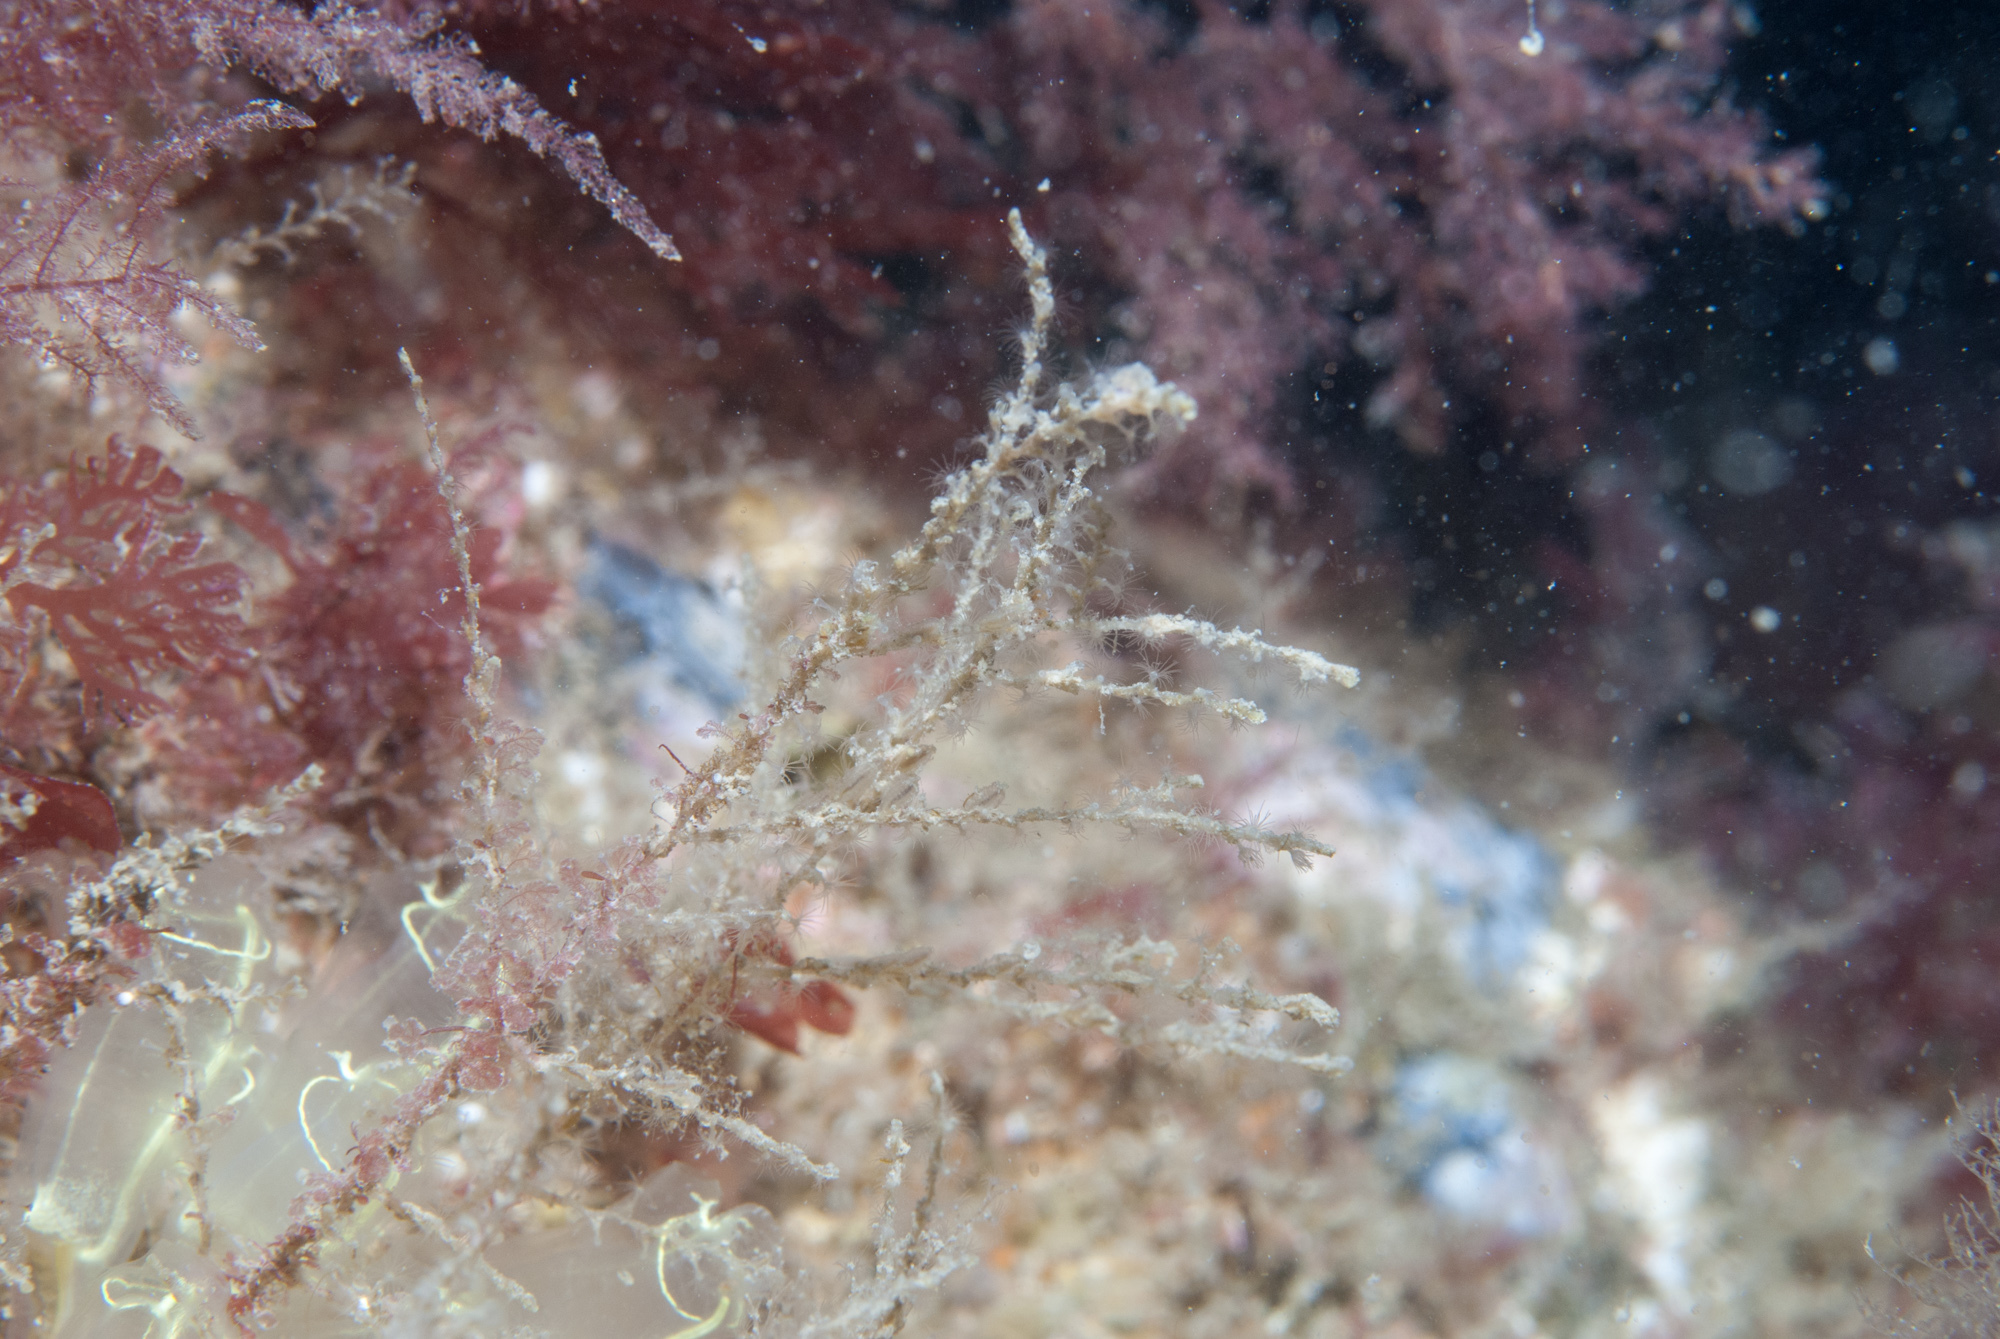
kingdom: Animalia
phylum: Cnidaria
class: Hydrozoa
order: Leptothecata
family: Sertularellidae
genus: Sertularella
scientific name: Sertularella polyzonias
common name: Great tooth hydroid
